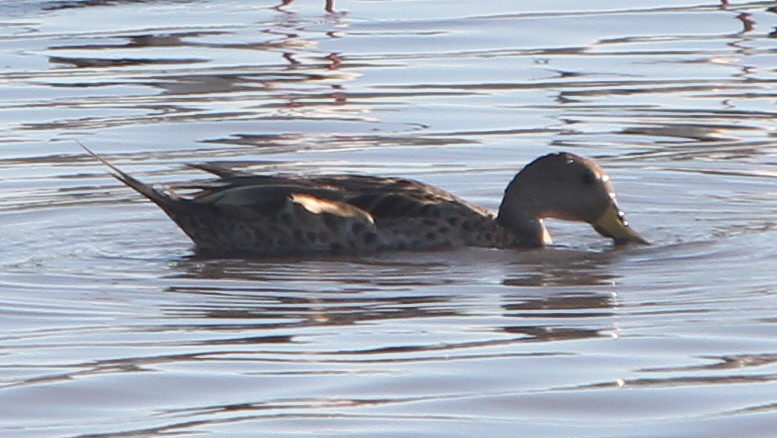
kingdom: Animalia
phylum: Chordata
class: Aves
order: Anseriformes
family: Anatidae
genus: Anas
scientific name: Anas georgica
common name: Yellow-billed pintail
